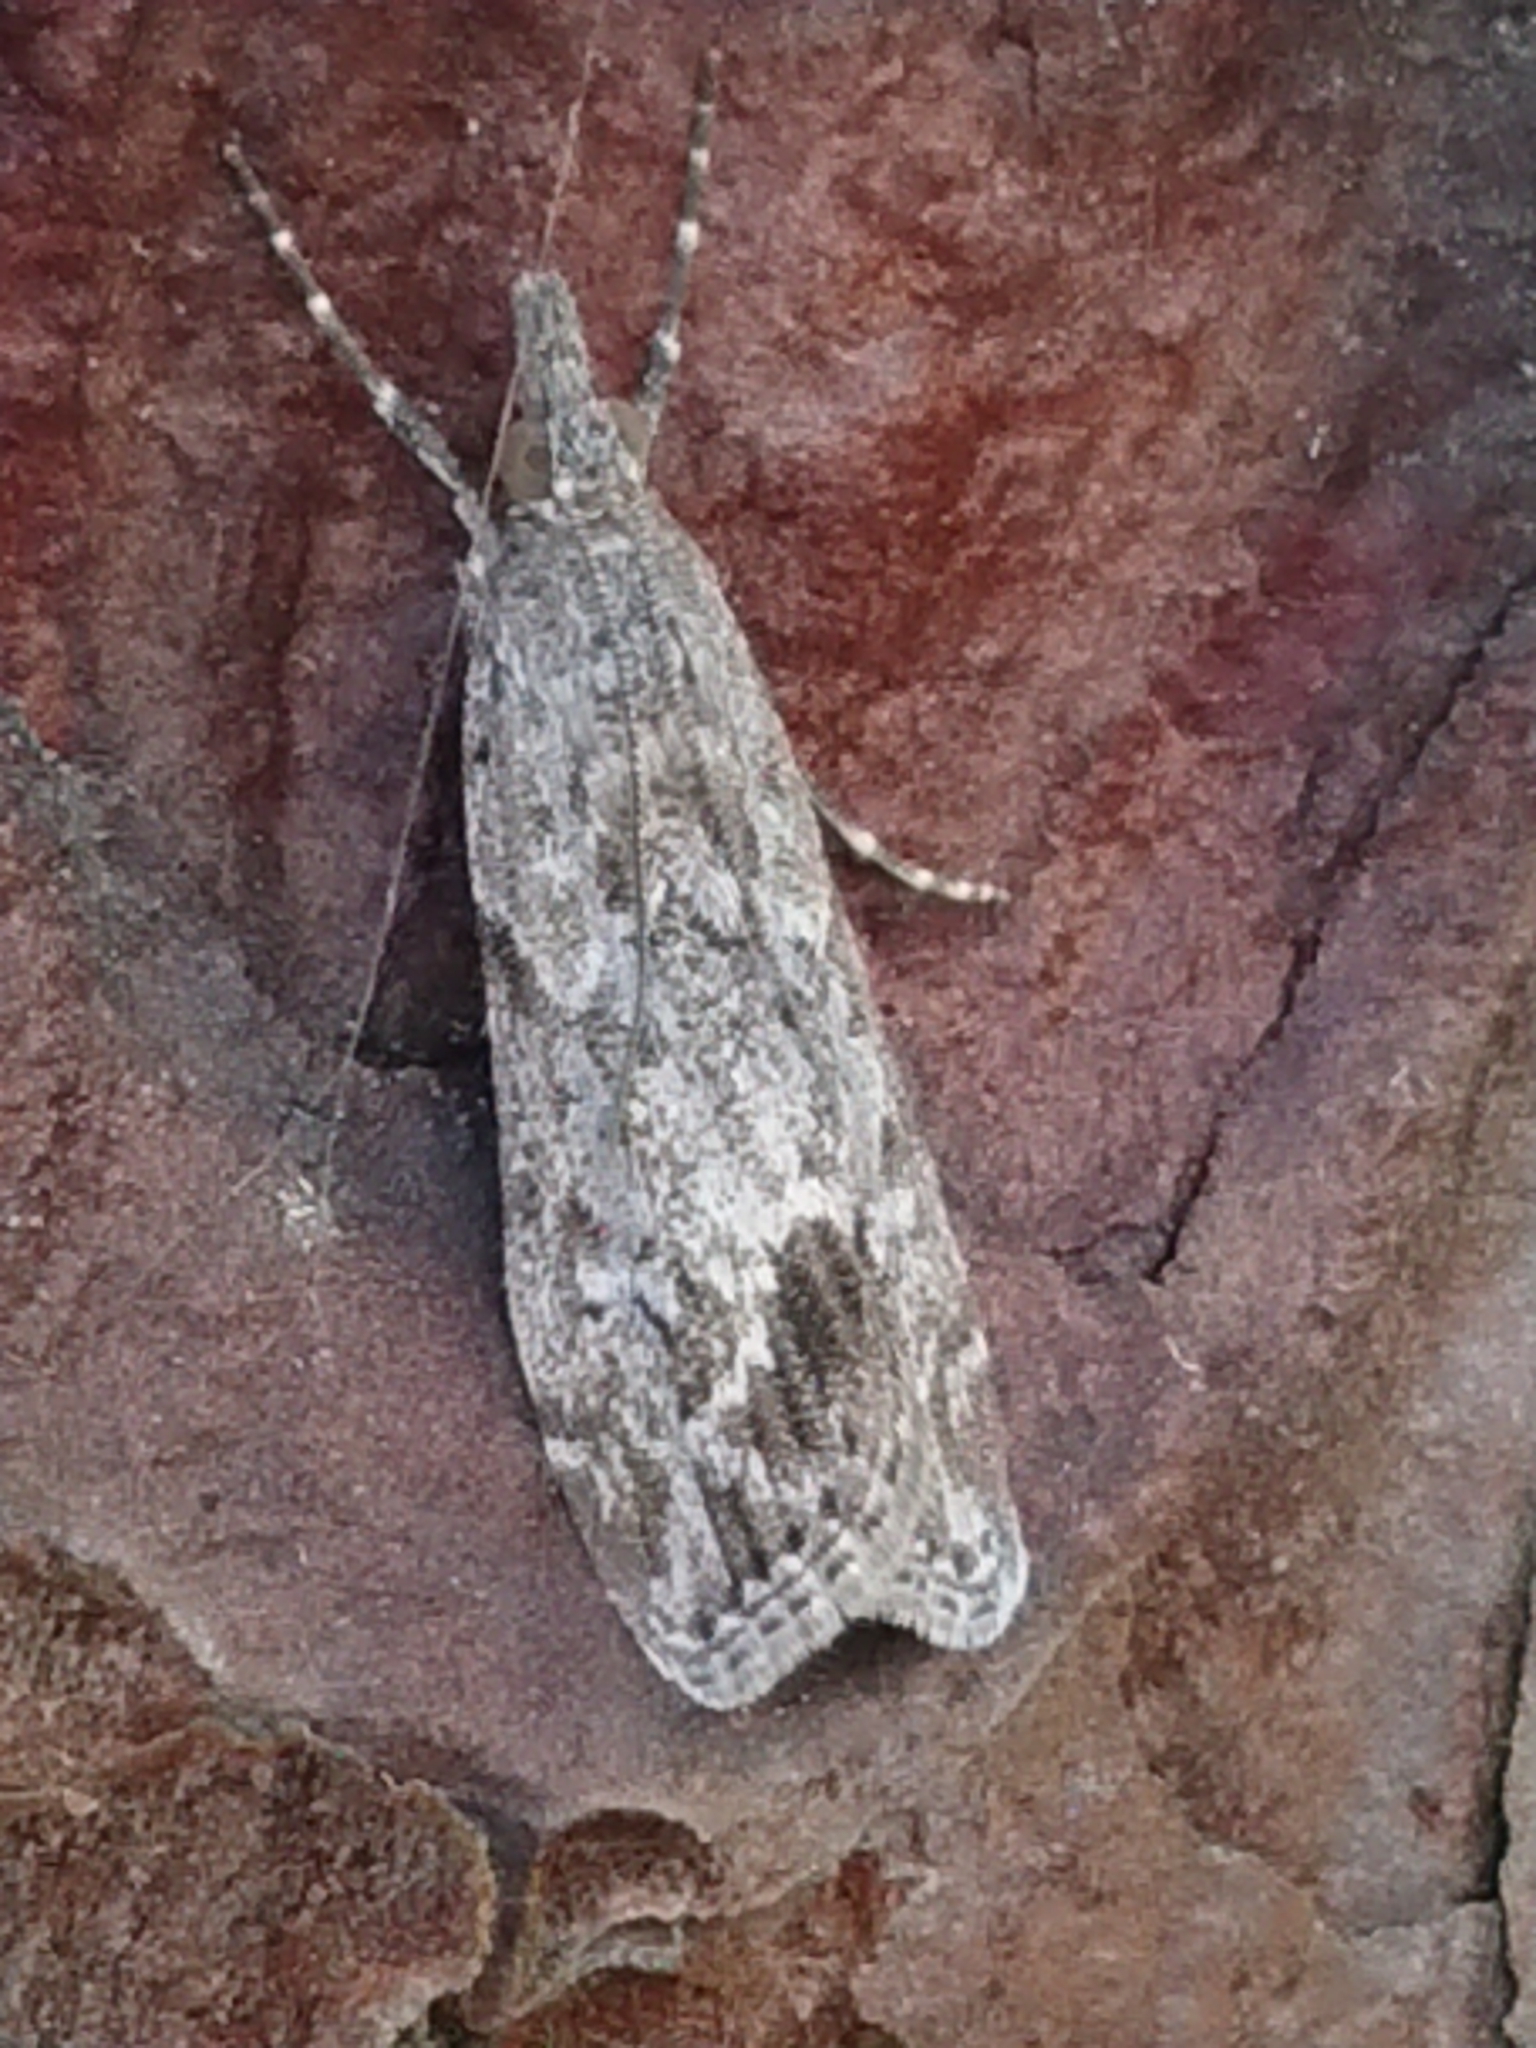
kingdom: Animalia
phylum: Arthropoda
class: Insecta
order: Lepidoptera
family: Crambidae
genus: Eudonia
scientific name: Eudonia rakaiensis
